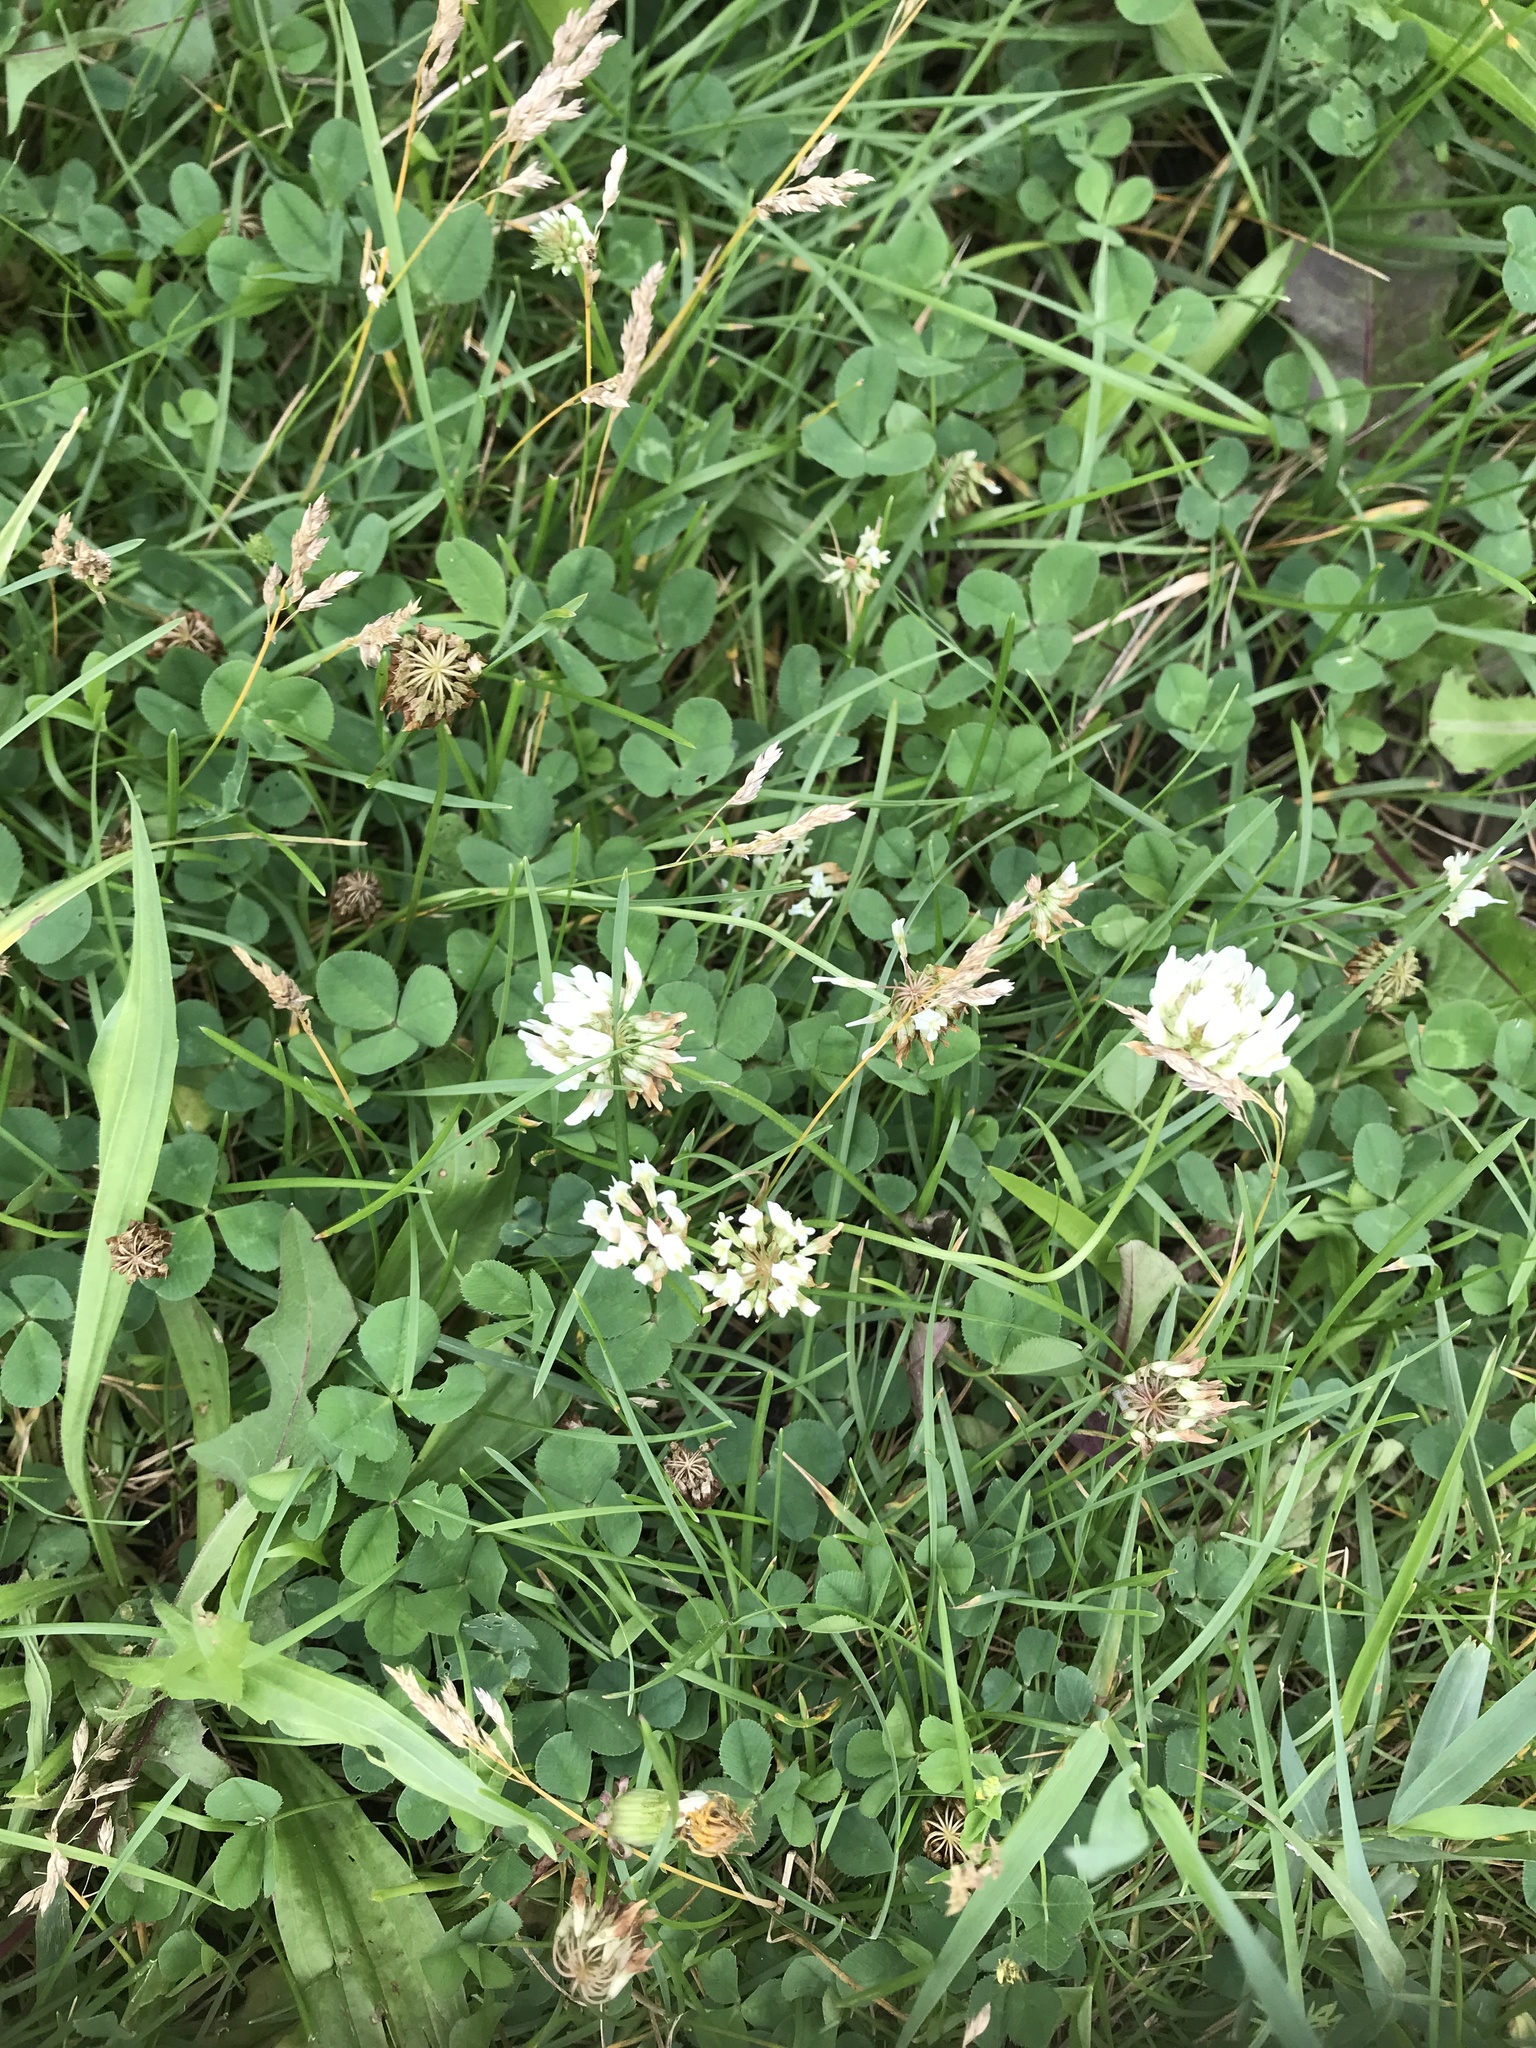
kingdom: Plantae
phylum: Tracheophyta
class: Magnoliopsida
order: Fabales
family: Fabaceae
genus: Trifolium
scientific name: Trifolium repens
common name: White clover
